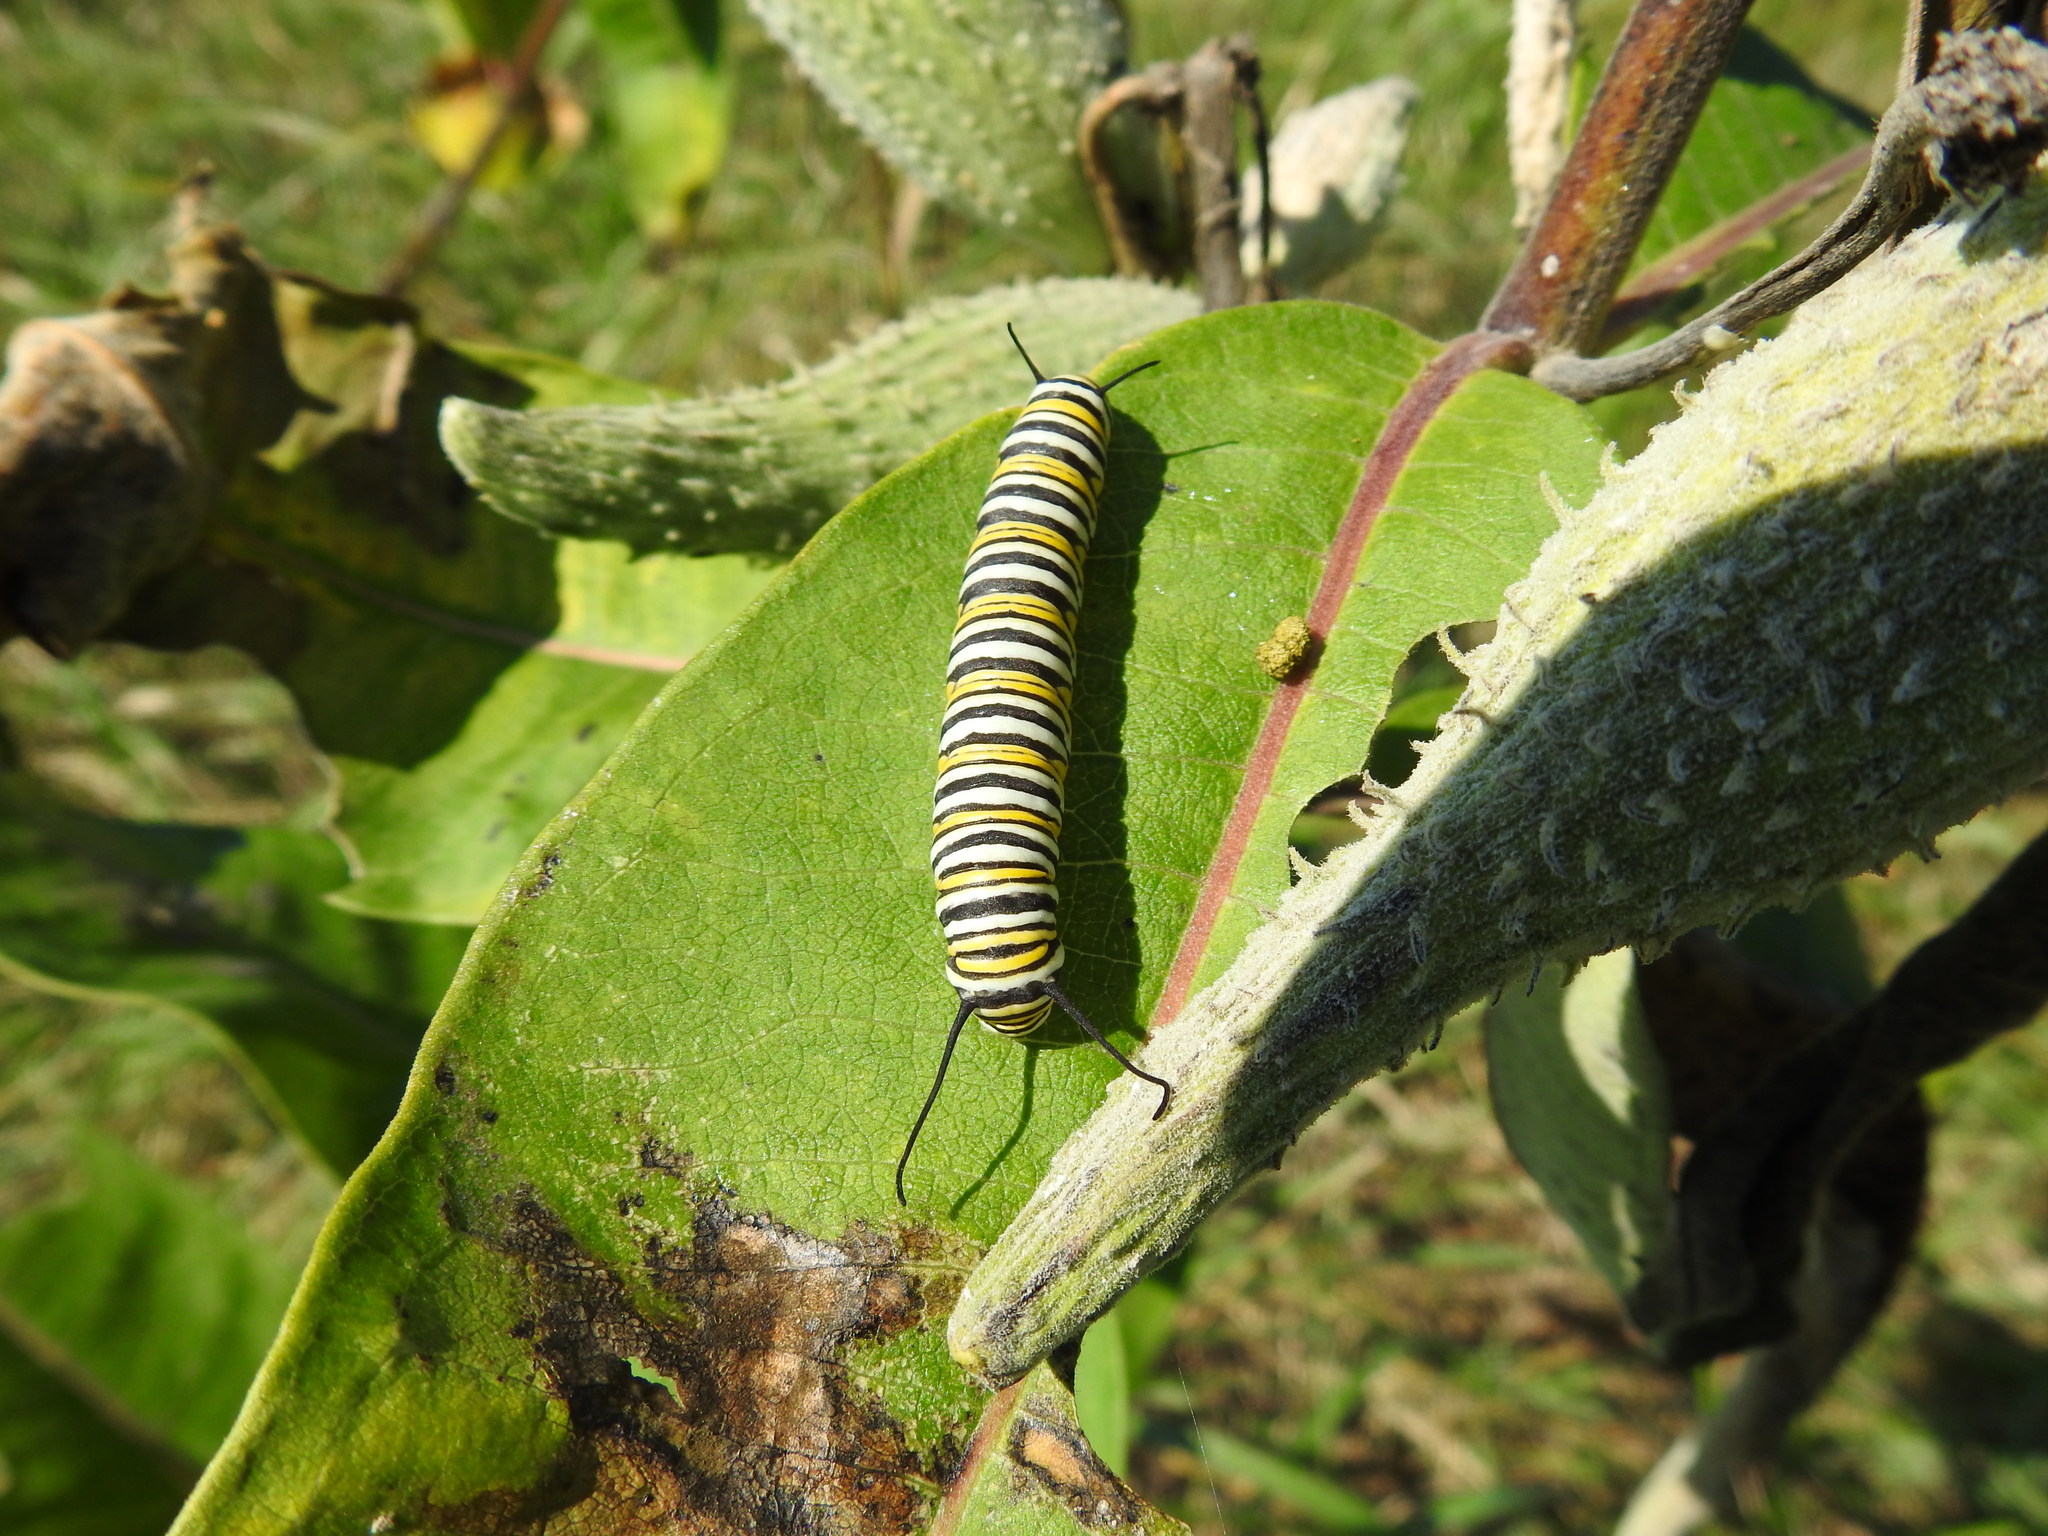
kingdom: Animalia
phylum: Arthropoda
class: Insecta
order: Lepidoptera
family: Nymphalidae
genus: Danaus
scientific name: Danaus plexippus
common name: Monarch
